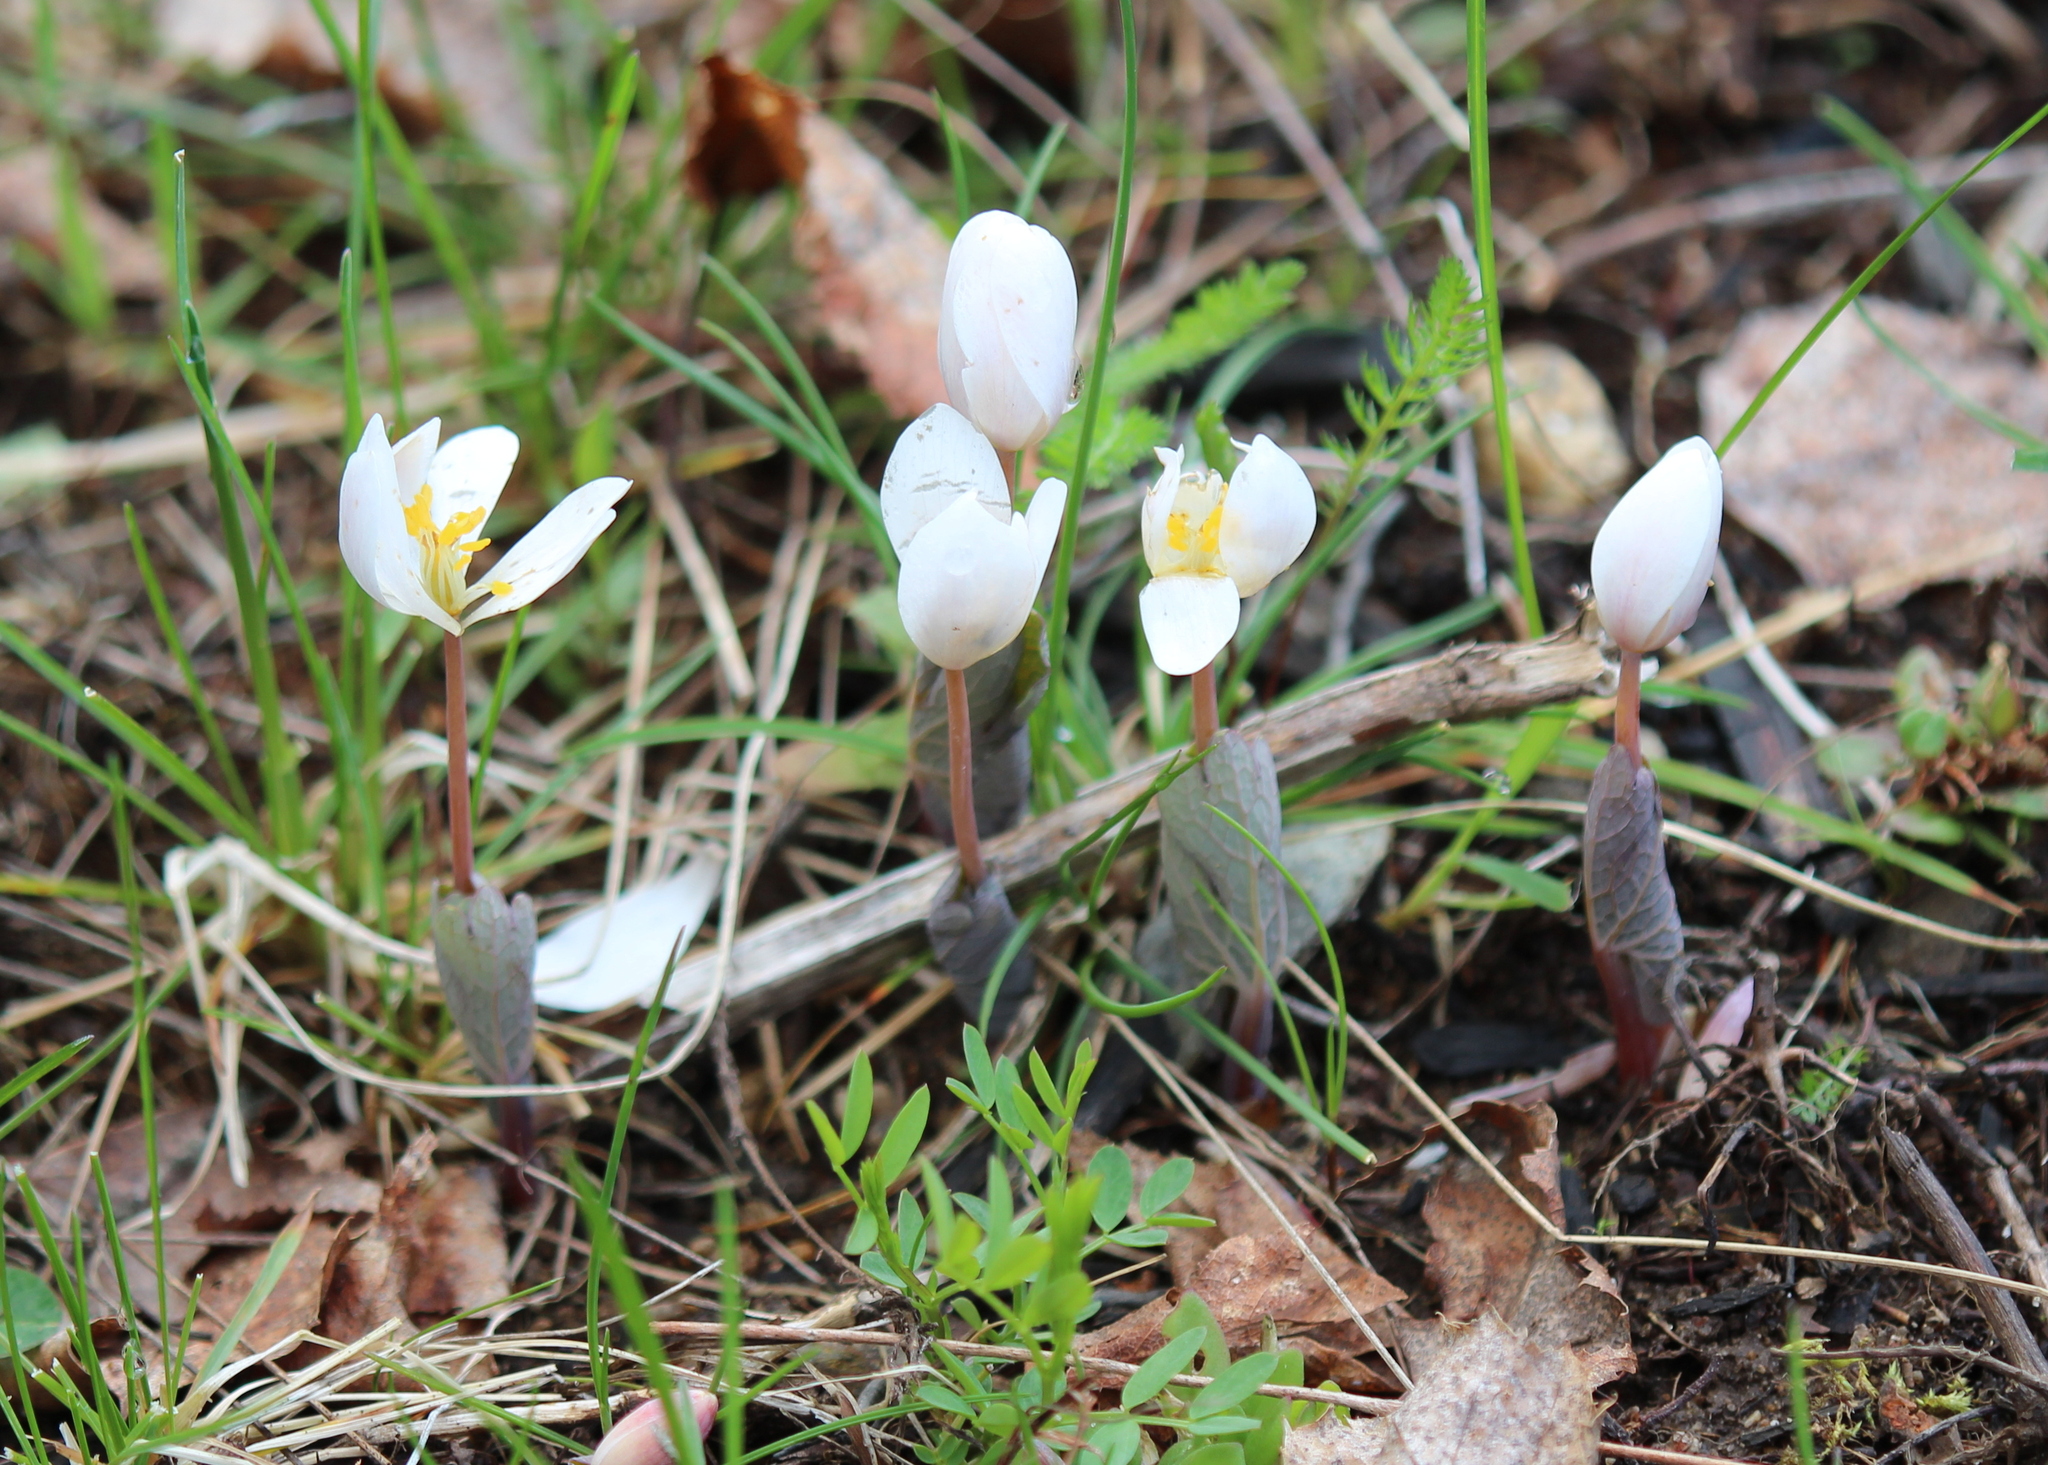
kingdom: Plantae
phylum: Tracheophyta
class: Magnoliopsida
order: Ranunculales
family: Papaveraceae
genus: Sanguinaria
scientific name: Sanguinaria canadensis
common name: Bloodroot
